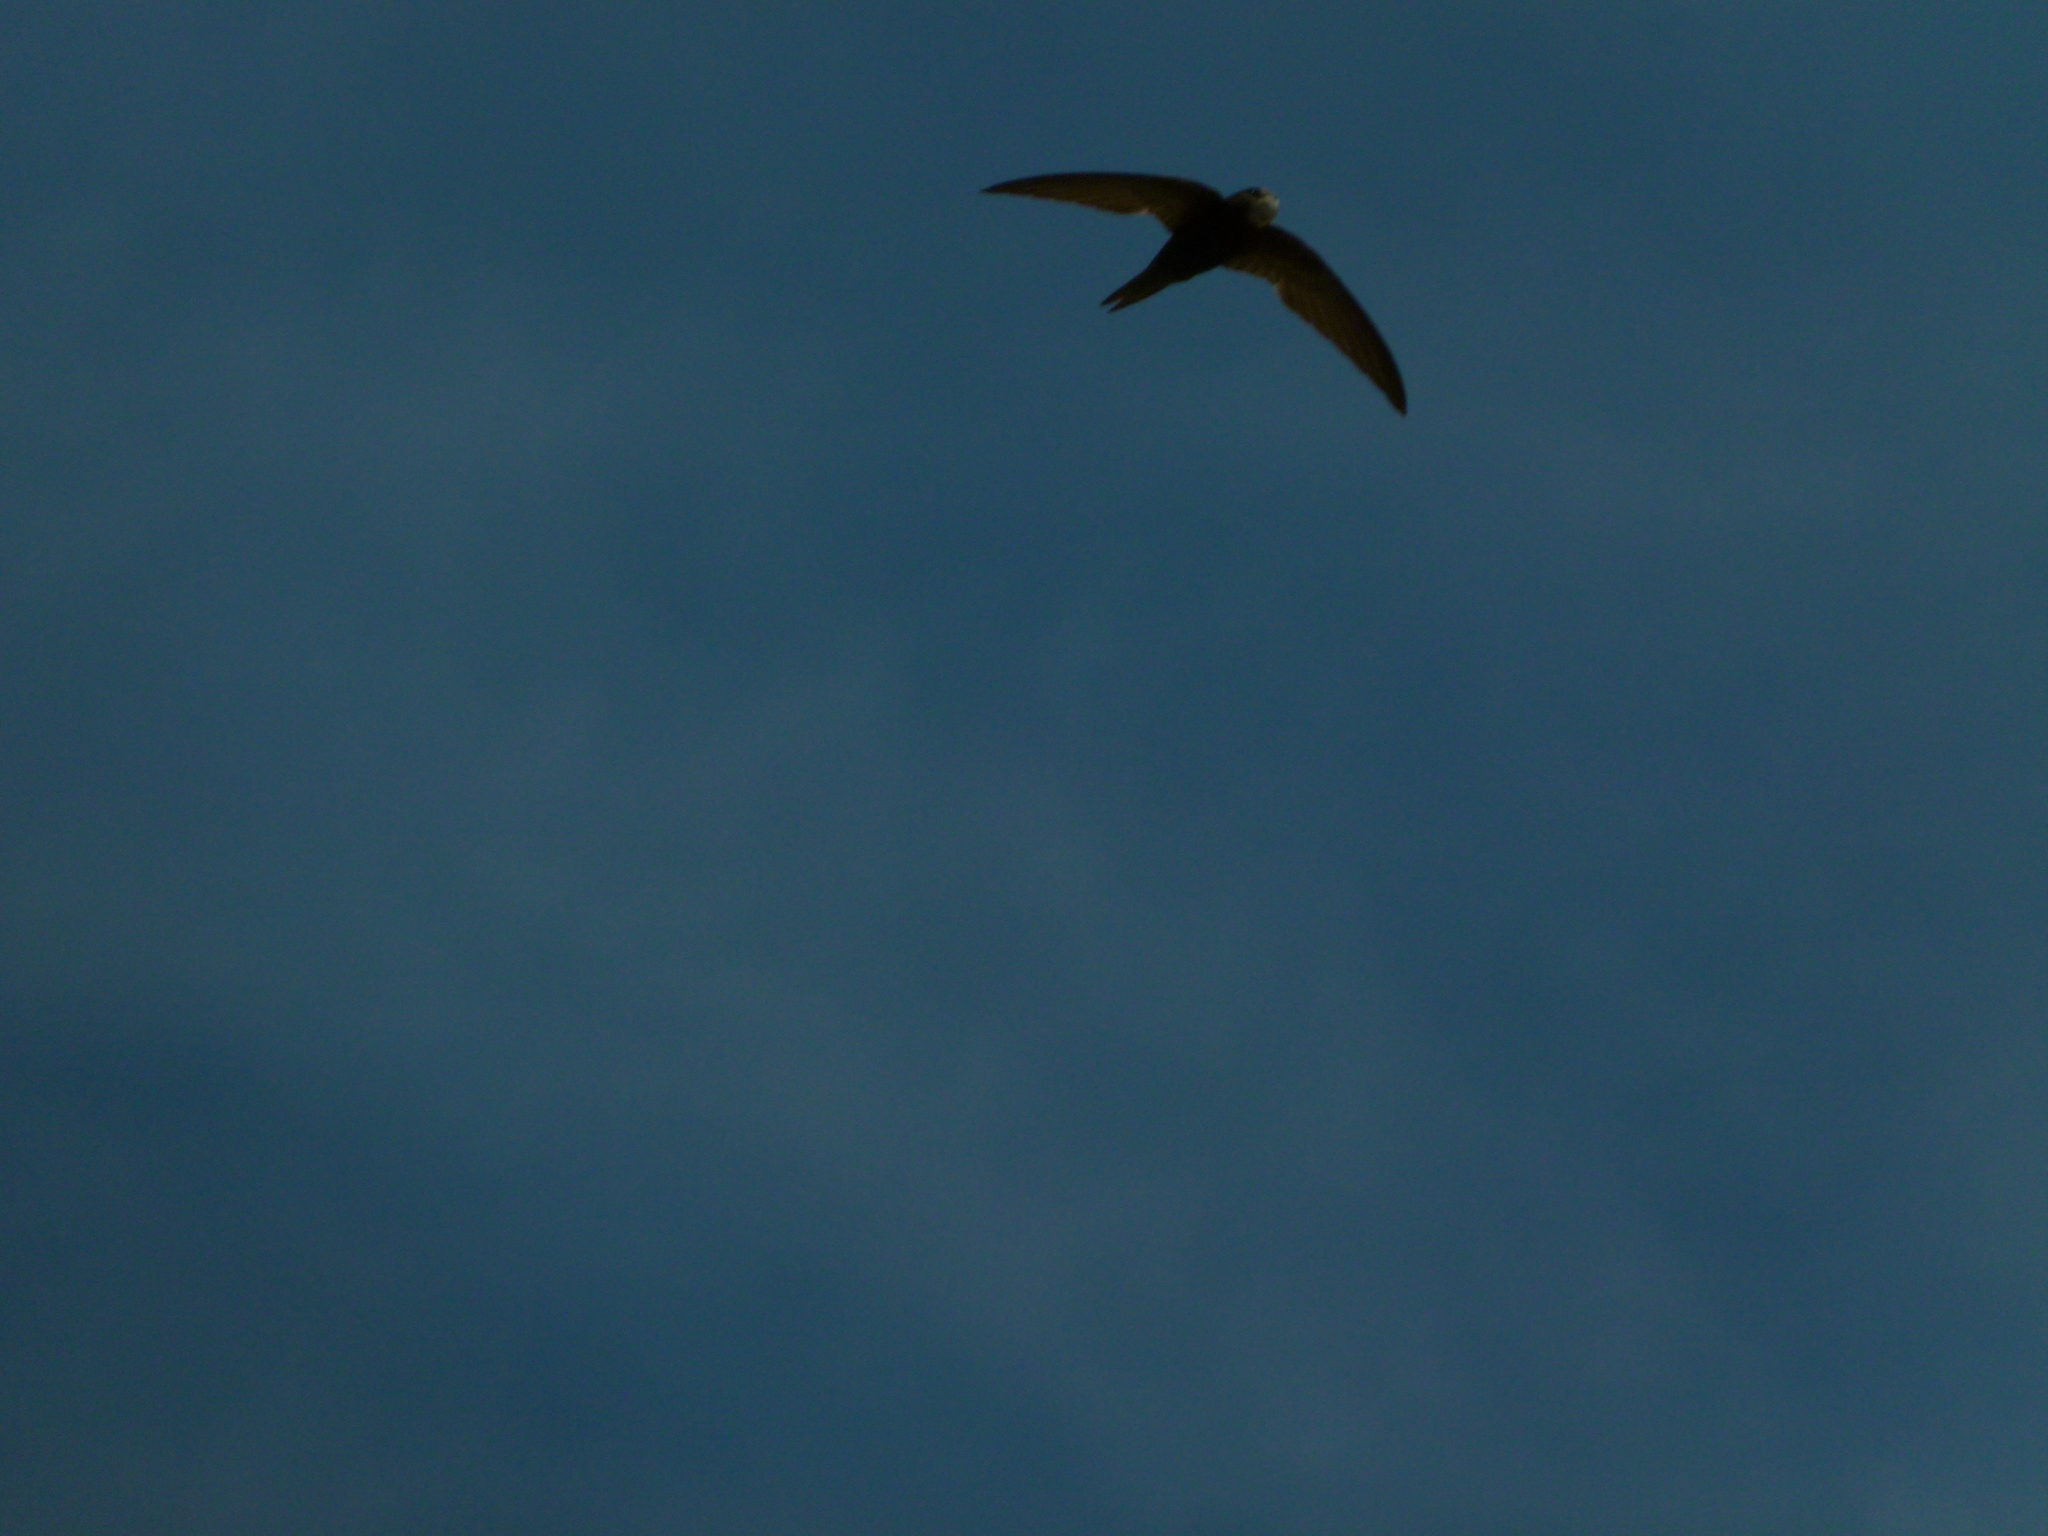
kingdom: Animalia
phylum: Chordata
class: Aves
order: Apodiformes
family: Apodidae
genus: Apus
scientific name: Apus apus
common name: Common swift
